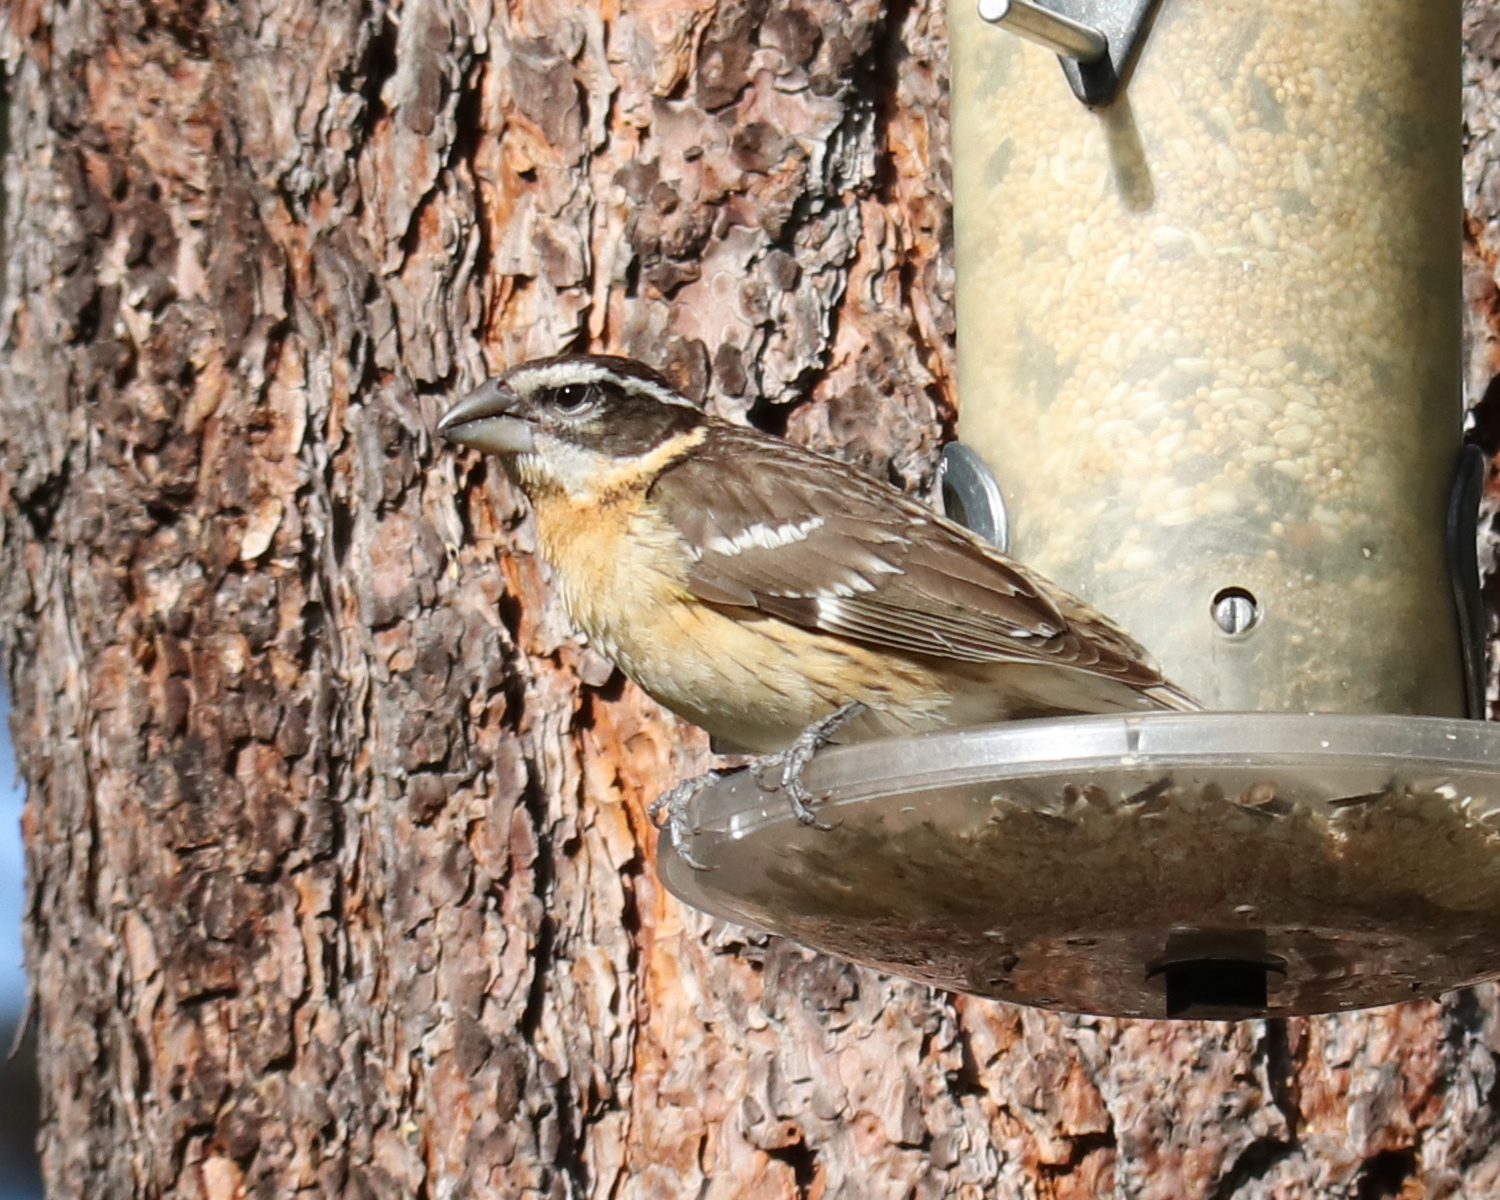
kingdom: Animalia
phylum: Chordata
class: Aves
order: Passeriformes
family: Cardinalidae
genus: Pheucticus
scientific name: Pheucticus melanocephalus
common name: Black-headed grosbeak
